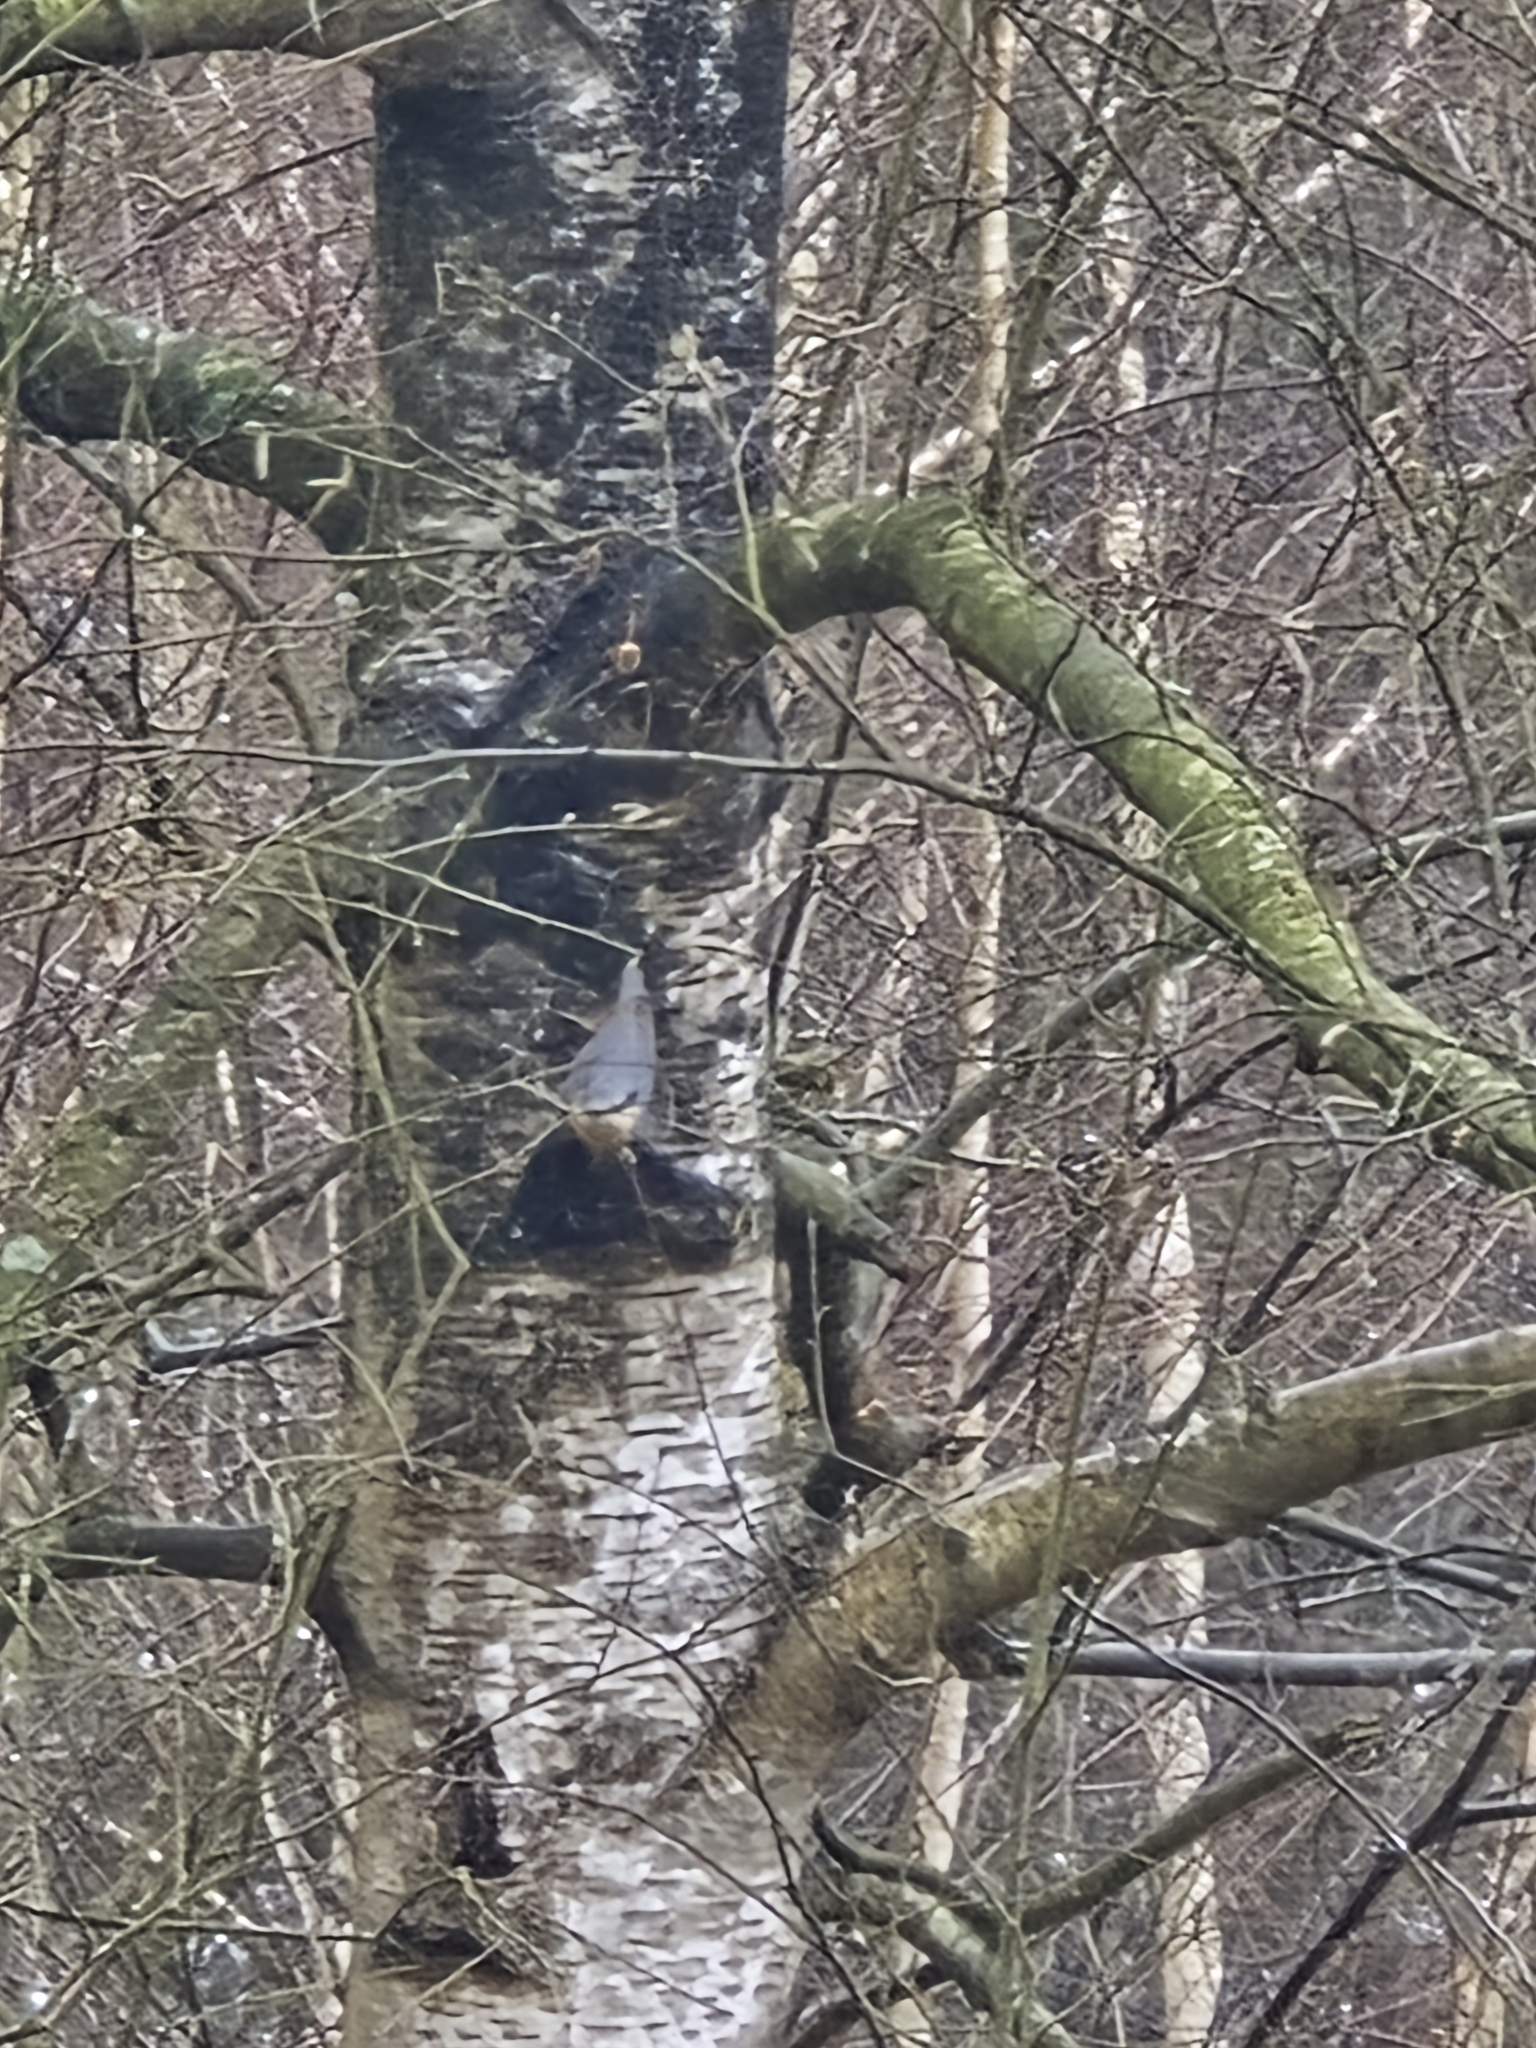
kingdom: Animalia
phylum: Chordata
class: Aves
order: Passeriformes
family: Sittidae
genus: Sitta
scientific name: Sitta europaea
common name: Eurasian nuthatch
